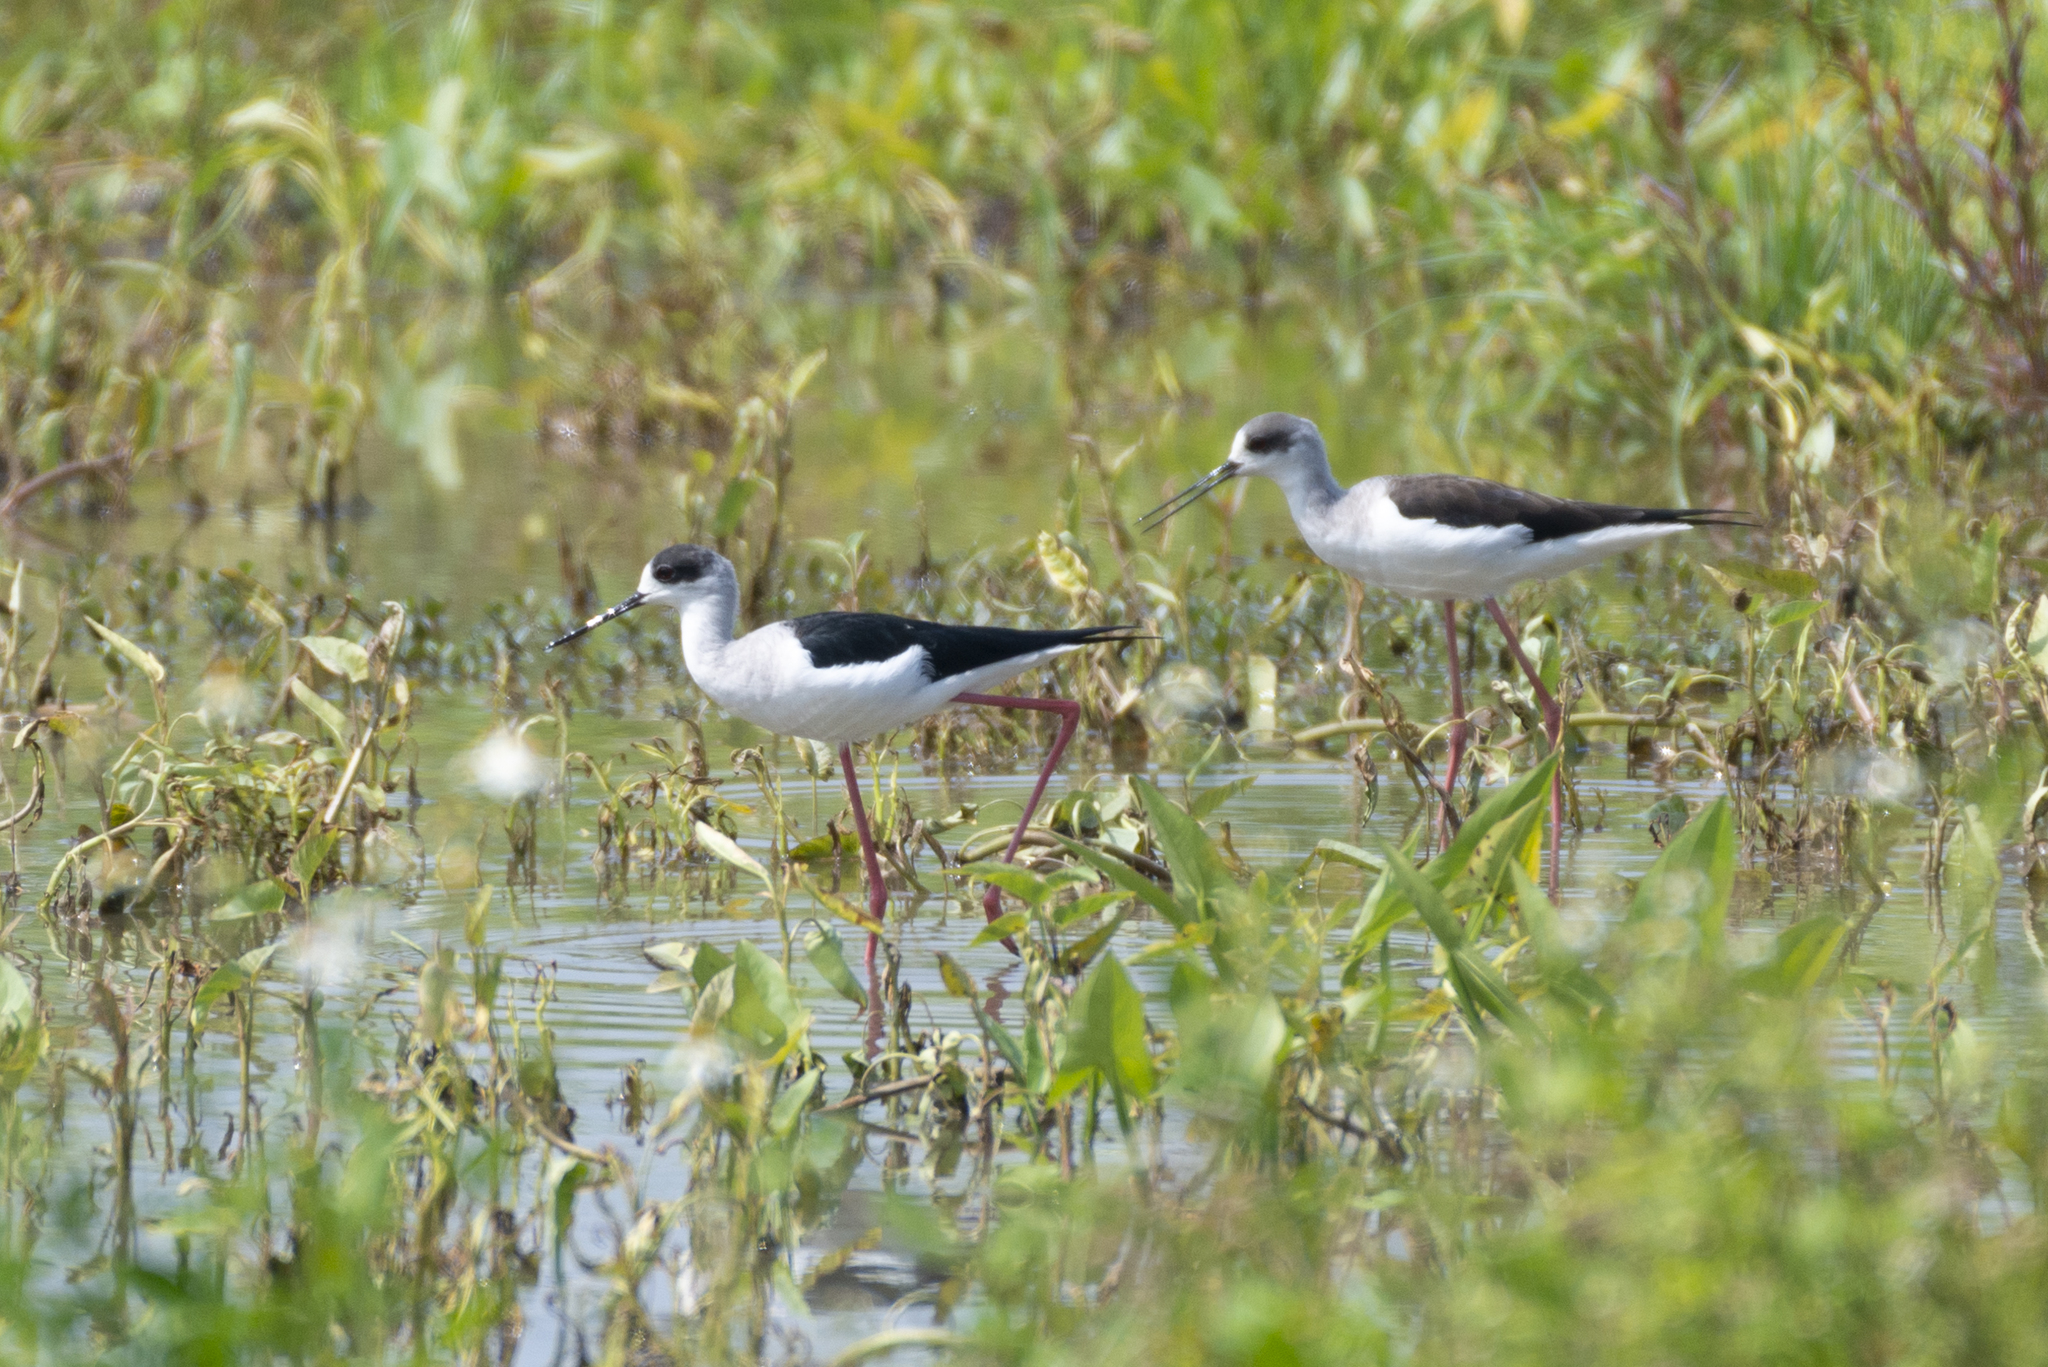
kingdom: Animalia
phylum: Chordata
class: Aves
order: Charadriiformes
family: Recurvirostridae
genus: Himantopus
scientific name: Himantopus himantopus
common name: Black-winged stilt
